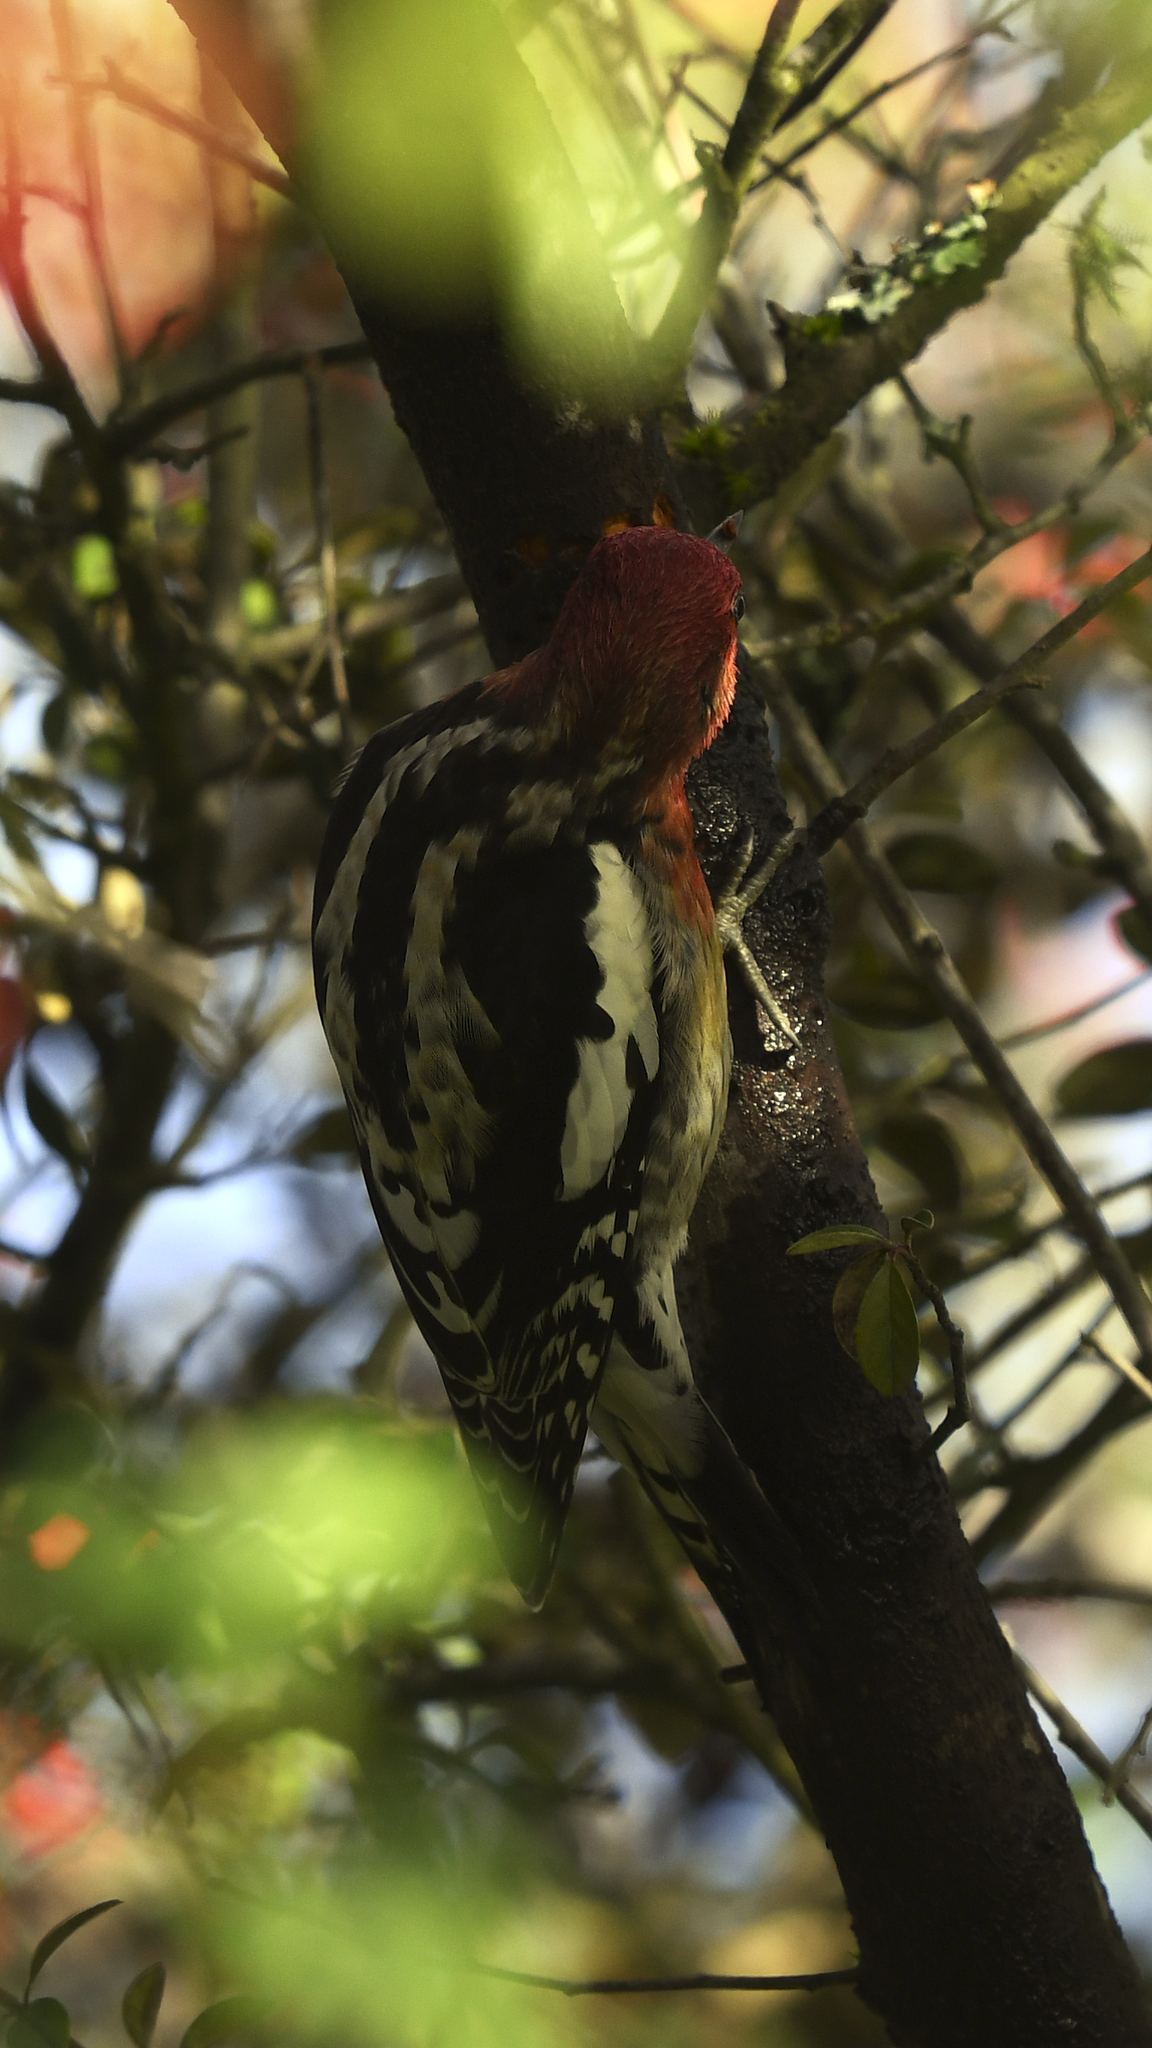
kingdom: Animalia
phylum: Chordata
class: Aves
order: Piciformes
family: Picidae
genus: Sphyrapicus
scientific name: Sphyrapicus ruber
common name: Red-breasted sapsucker
